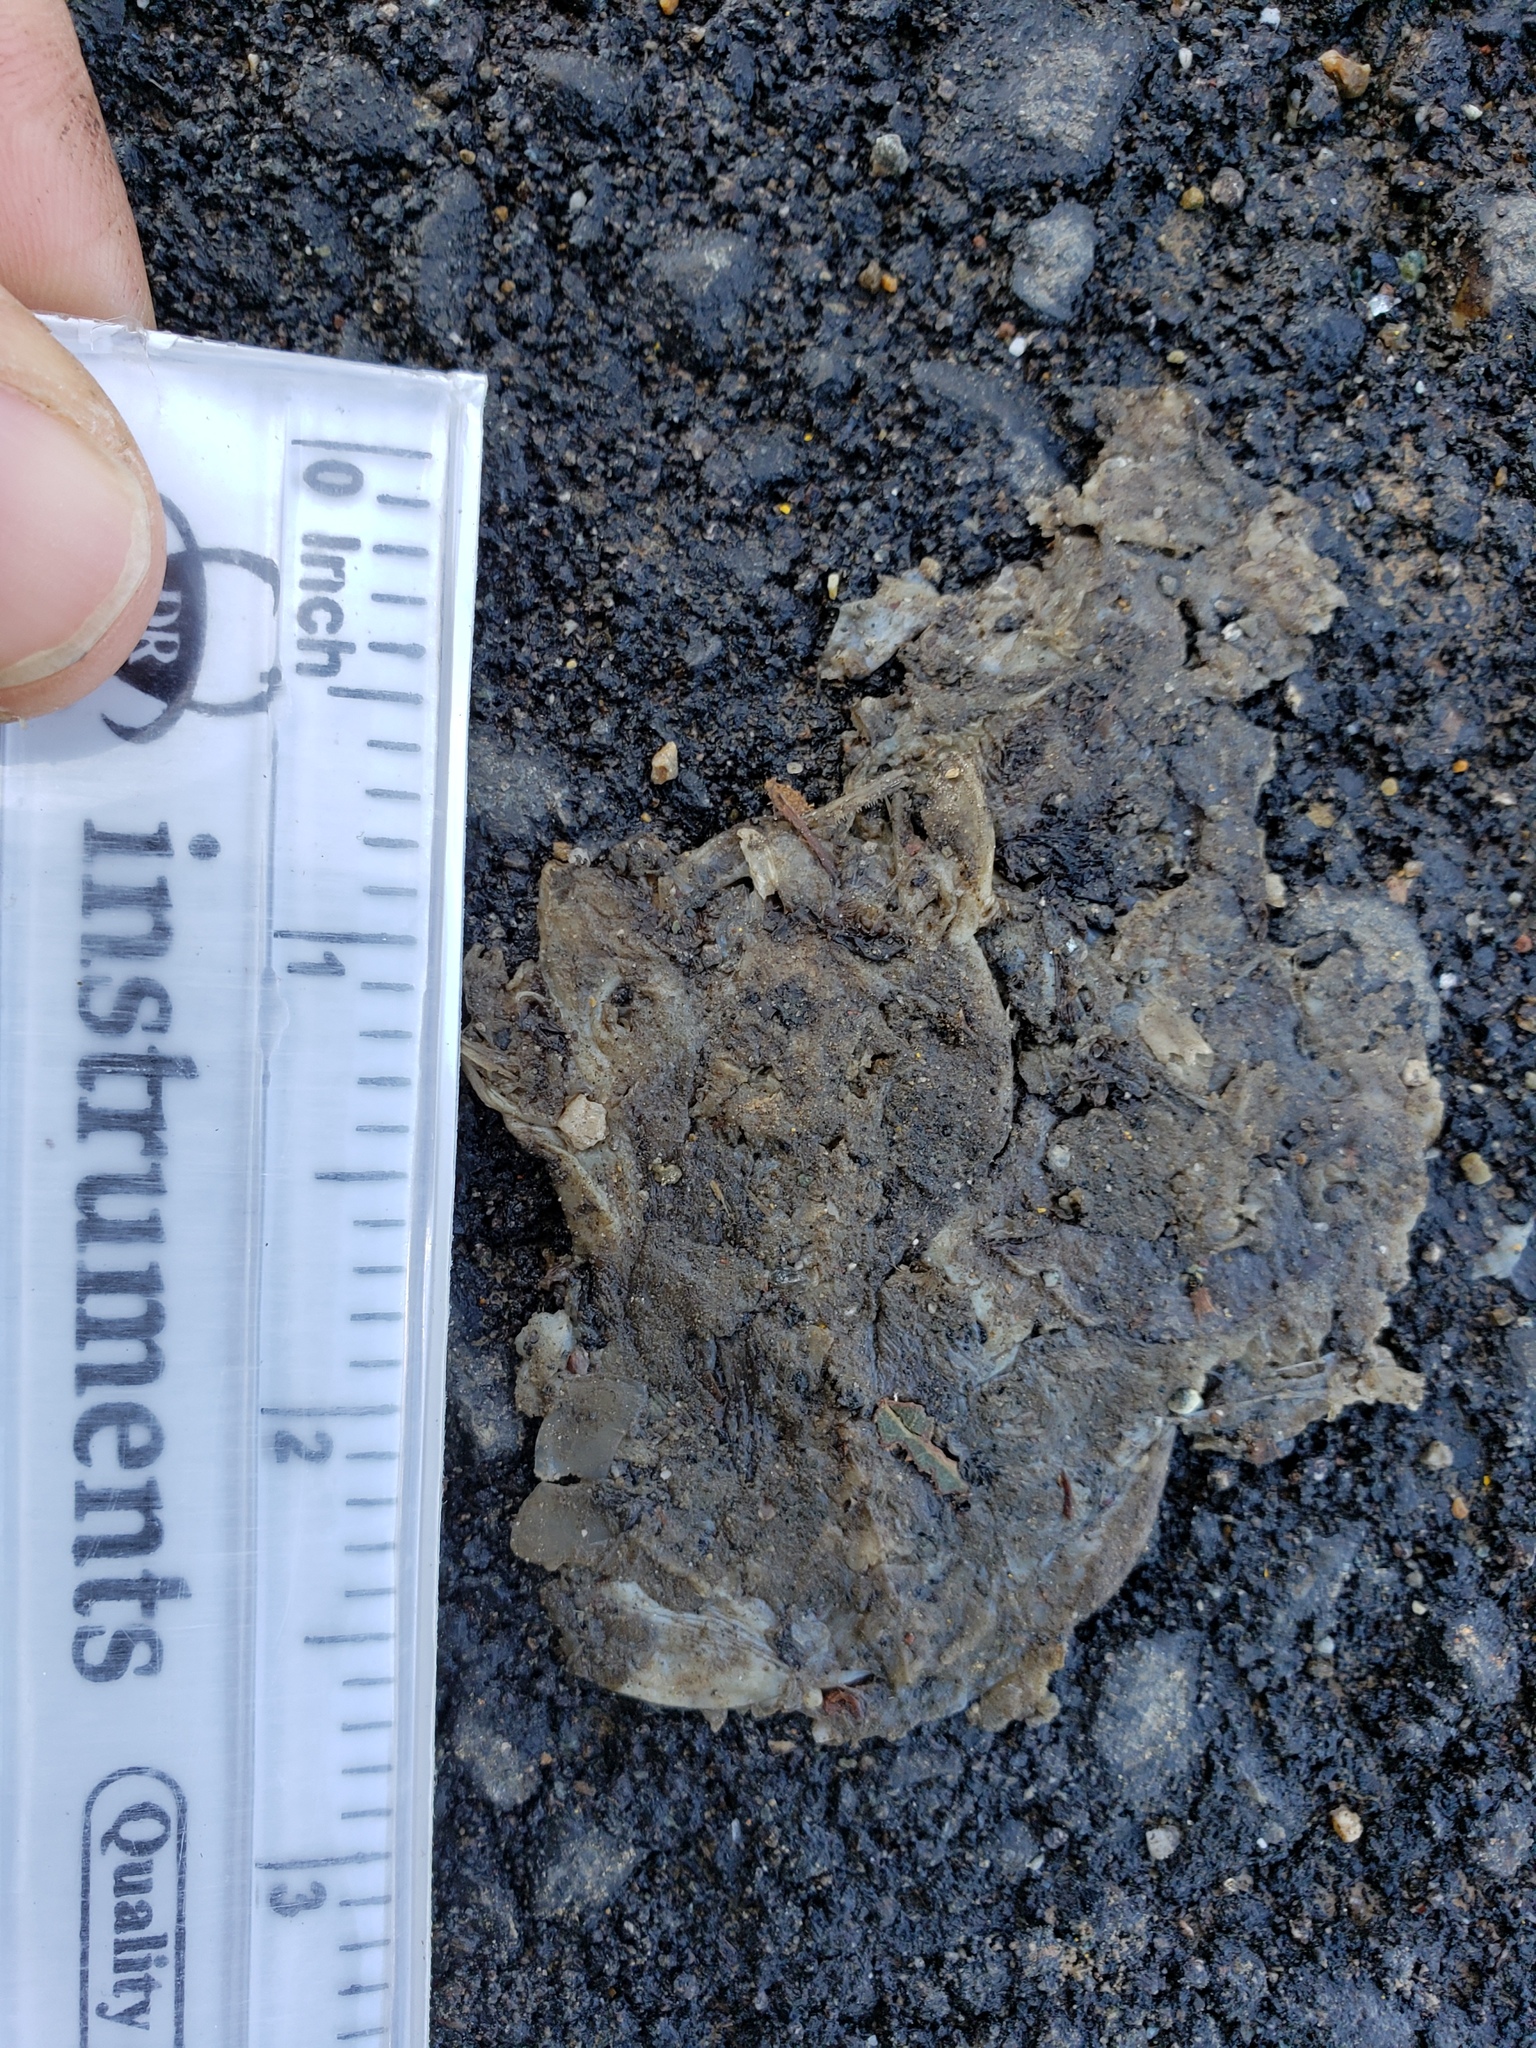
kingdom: Animalia
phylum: Chordata
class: Amphibia
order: Caudata
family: Salamandridae
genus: Taricha
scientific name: Taricha
